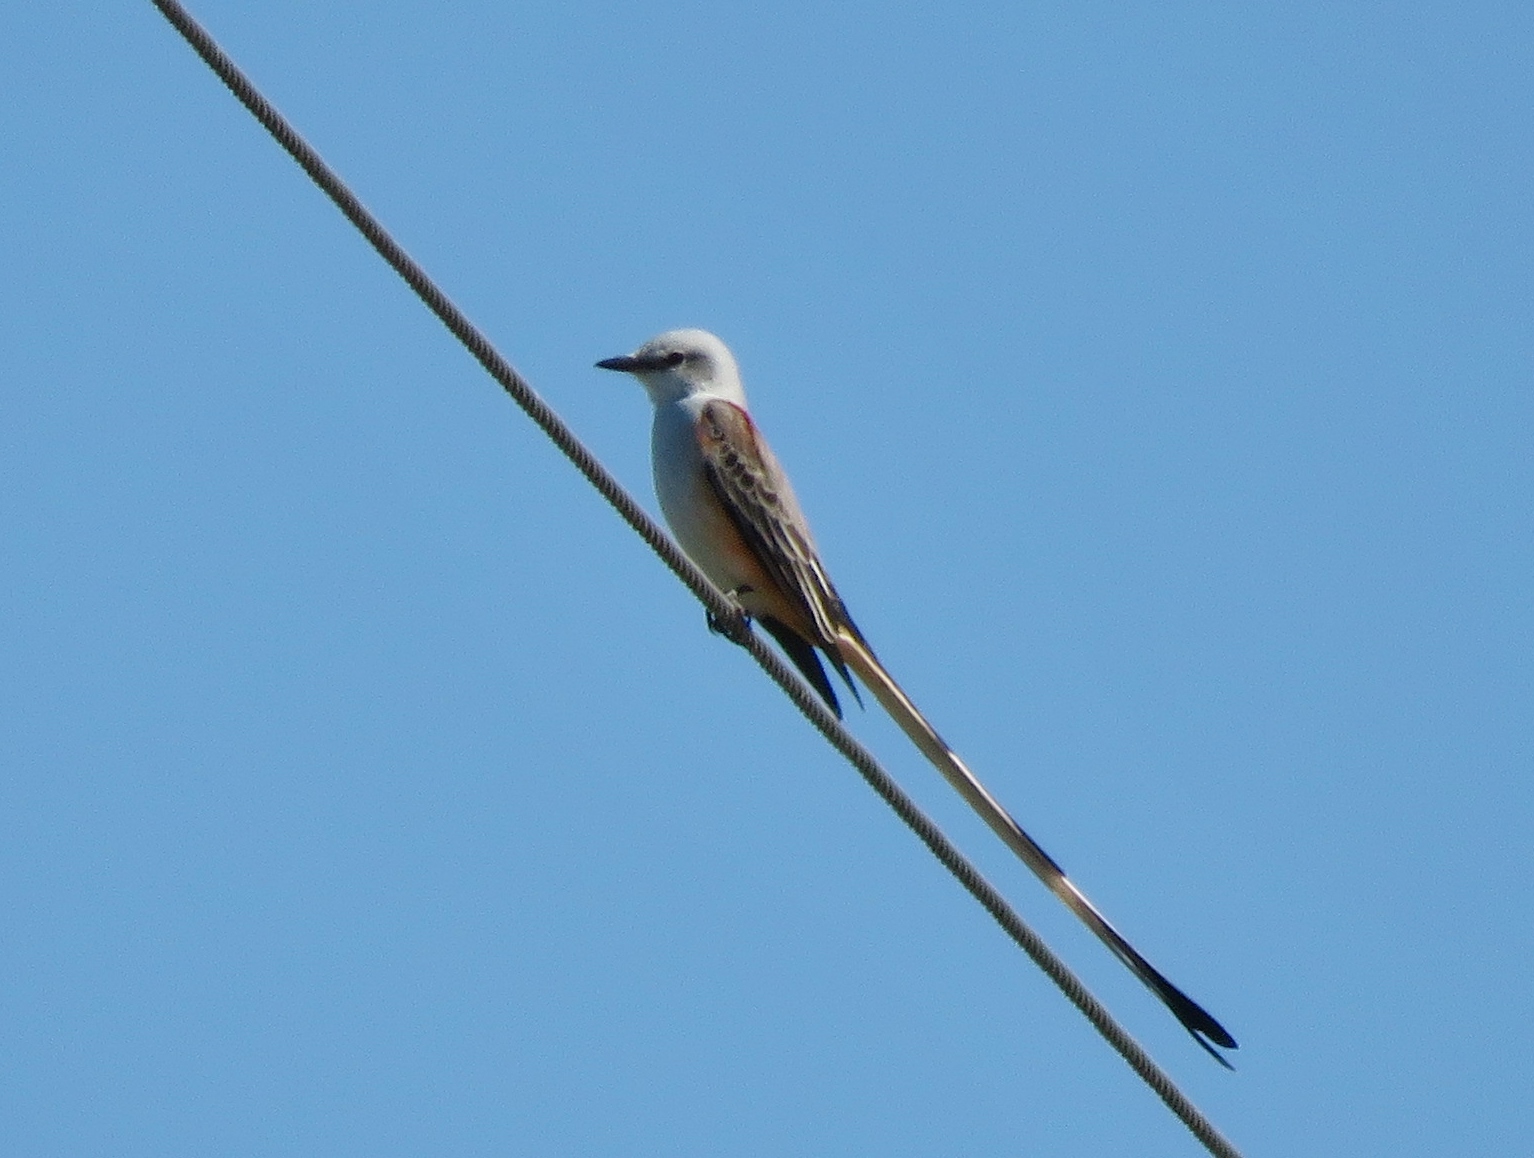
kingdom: Animalia
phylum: Chordata
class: Aves
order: Passeriformes
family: Tyrannidae
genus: Tyrannus
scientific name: Tyrannus forficatus
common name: Scissor-tailed flycatcher
